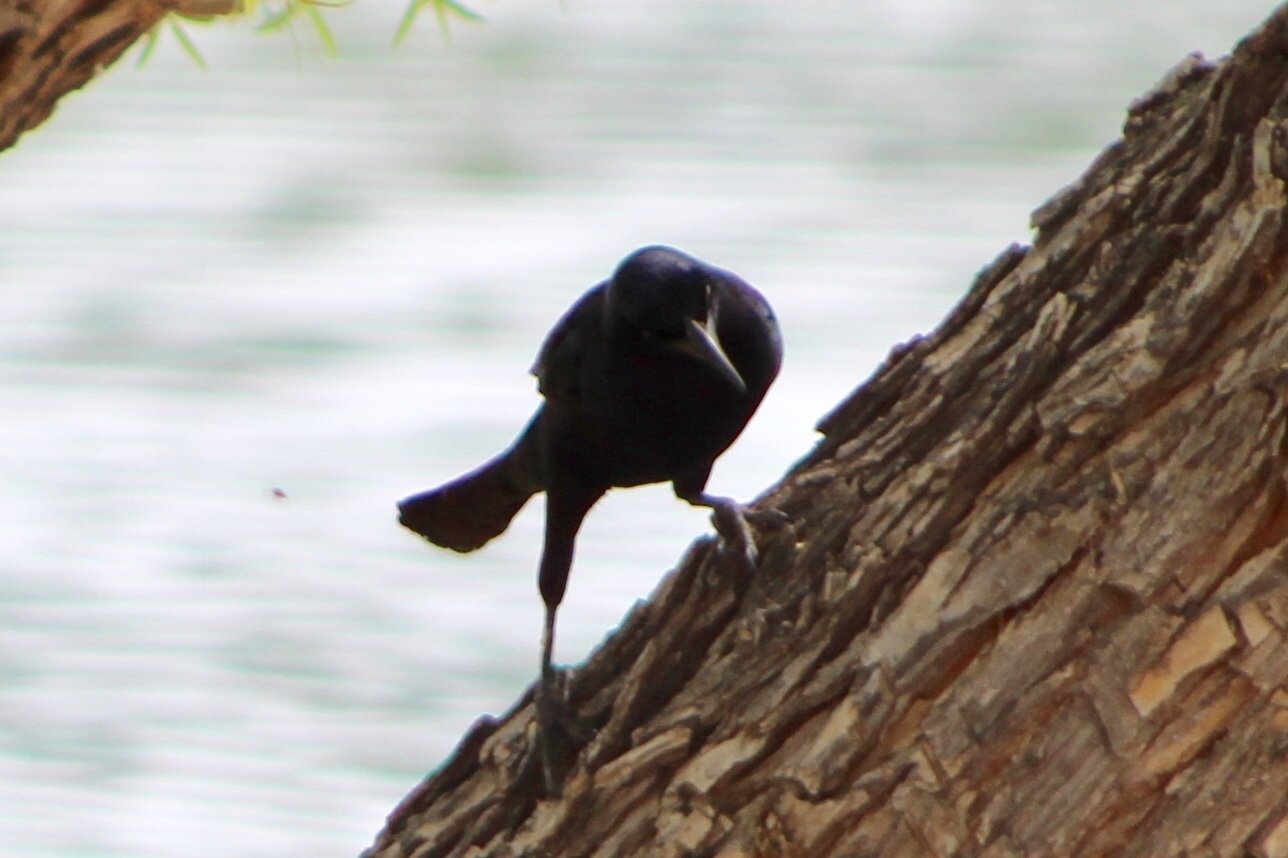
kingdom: Animalia
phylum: Chordata
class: Aves
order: Passeriformes
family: Icteridae
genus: Quiscalus
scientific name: Quiscalus mexicanus
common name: Great-tailed grackle
